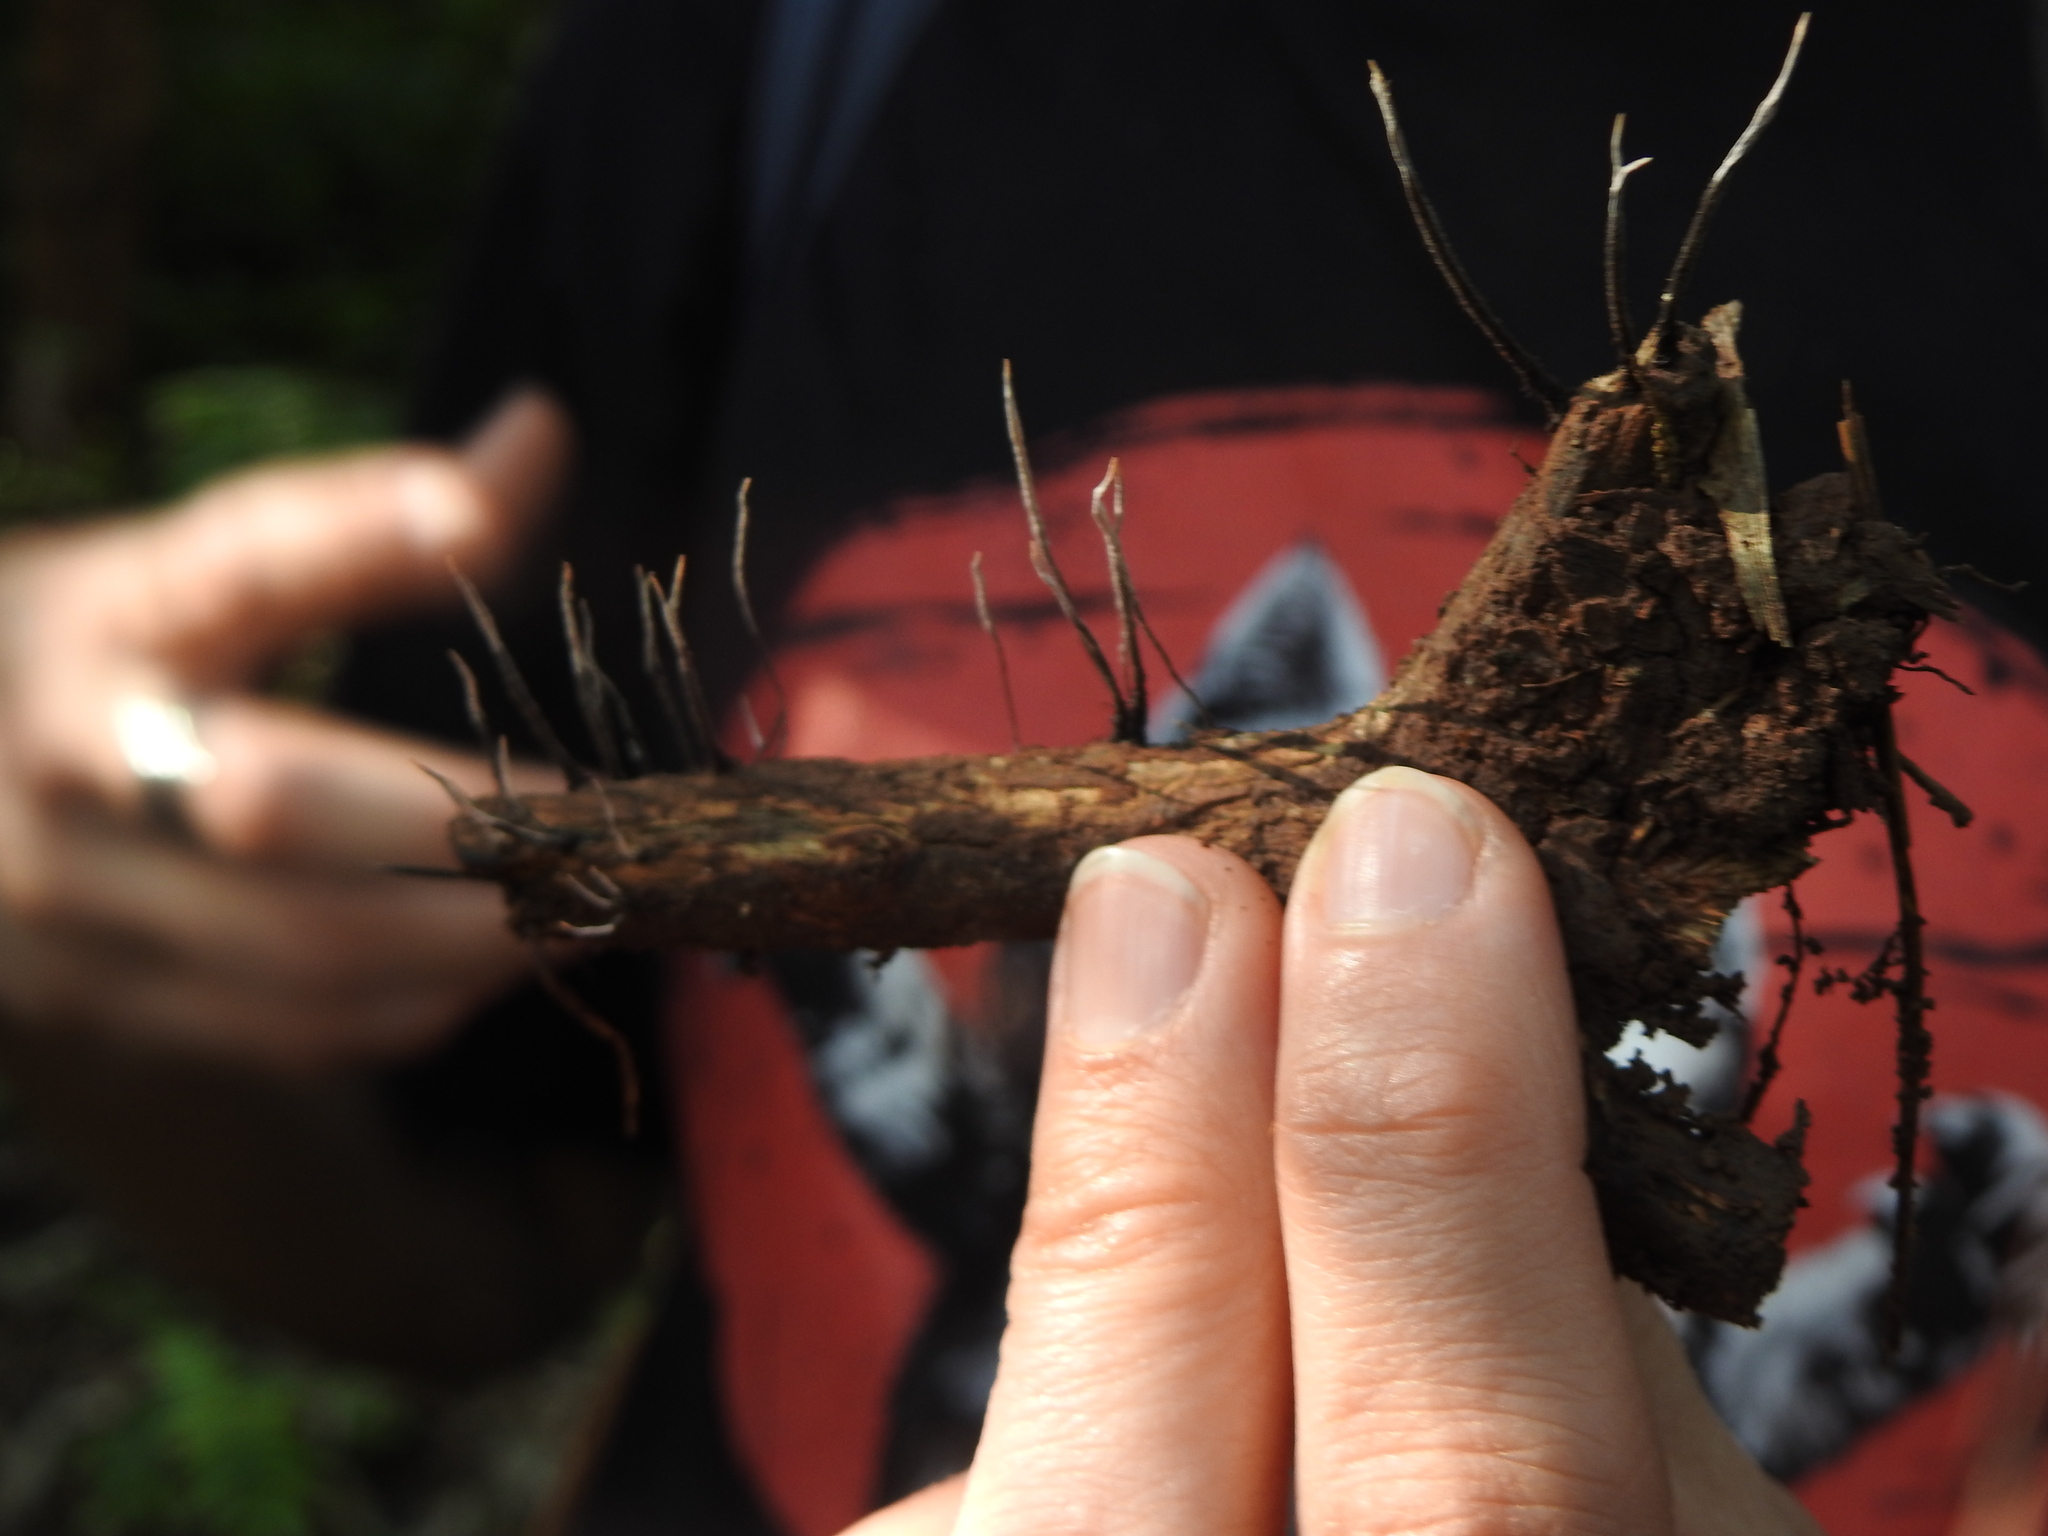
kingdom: Fungi
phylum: Ascomycota
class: Sordariomycetes
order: Xylariales
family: Xylariaceae
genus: Xylaria
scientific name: Xylaria filiformis
